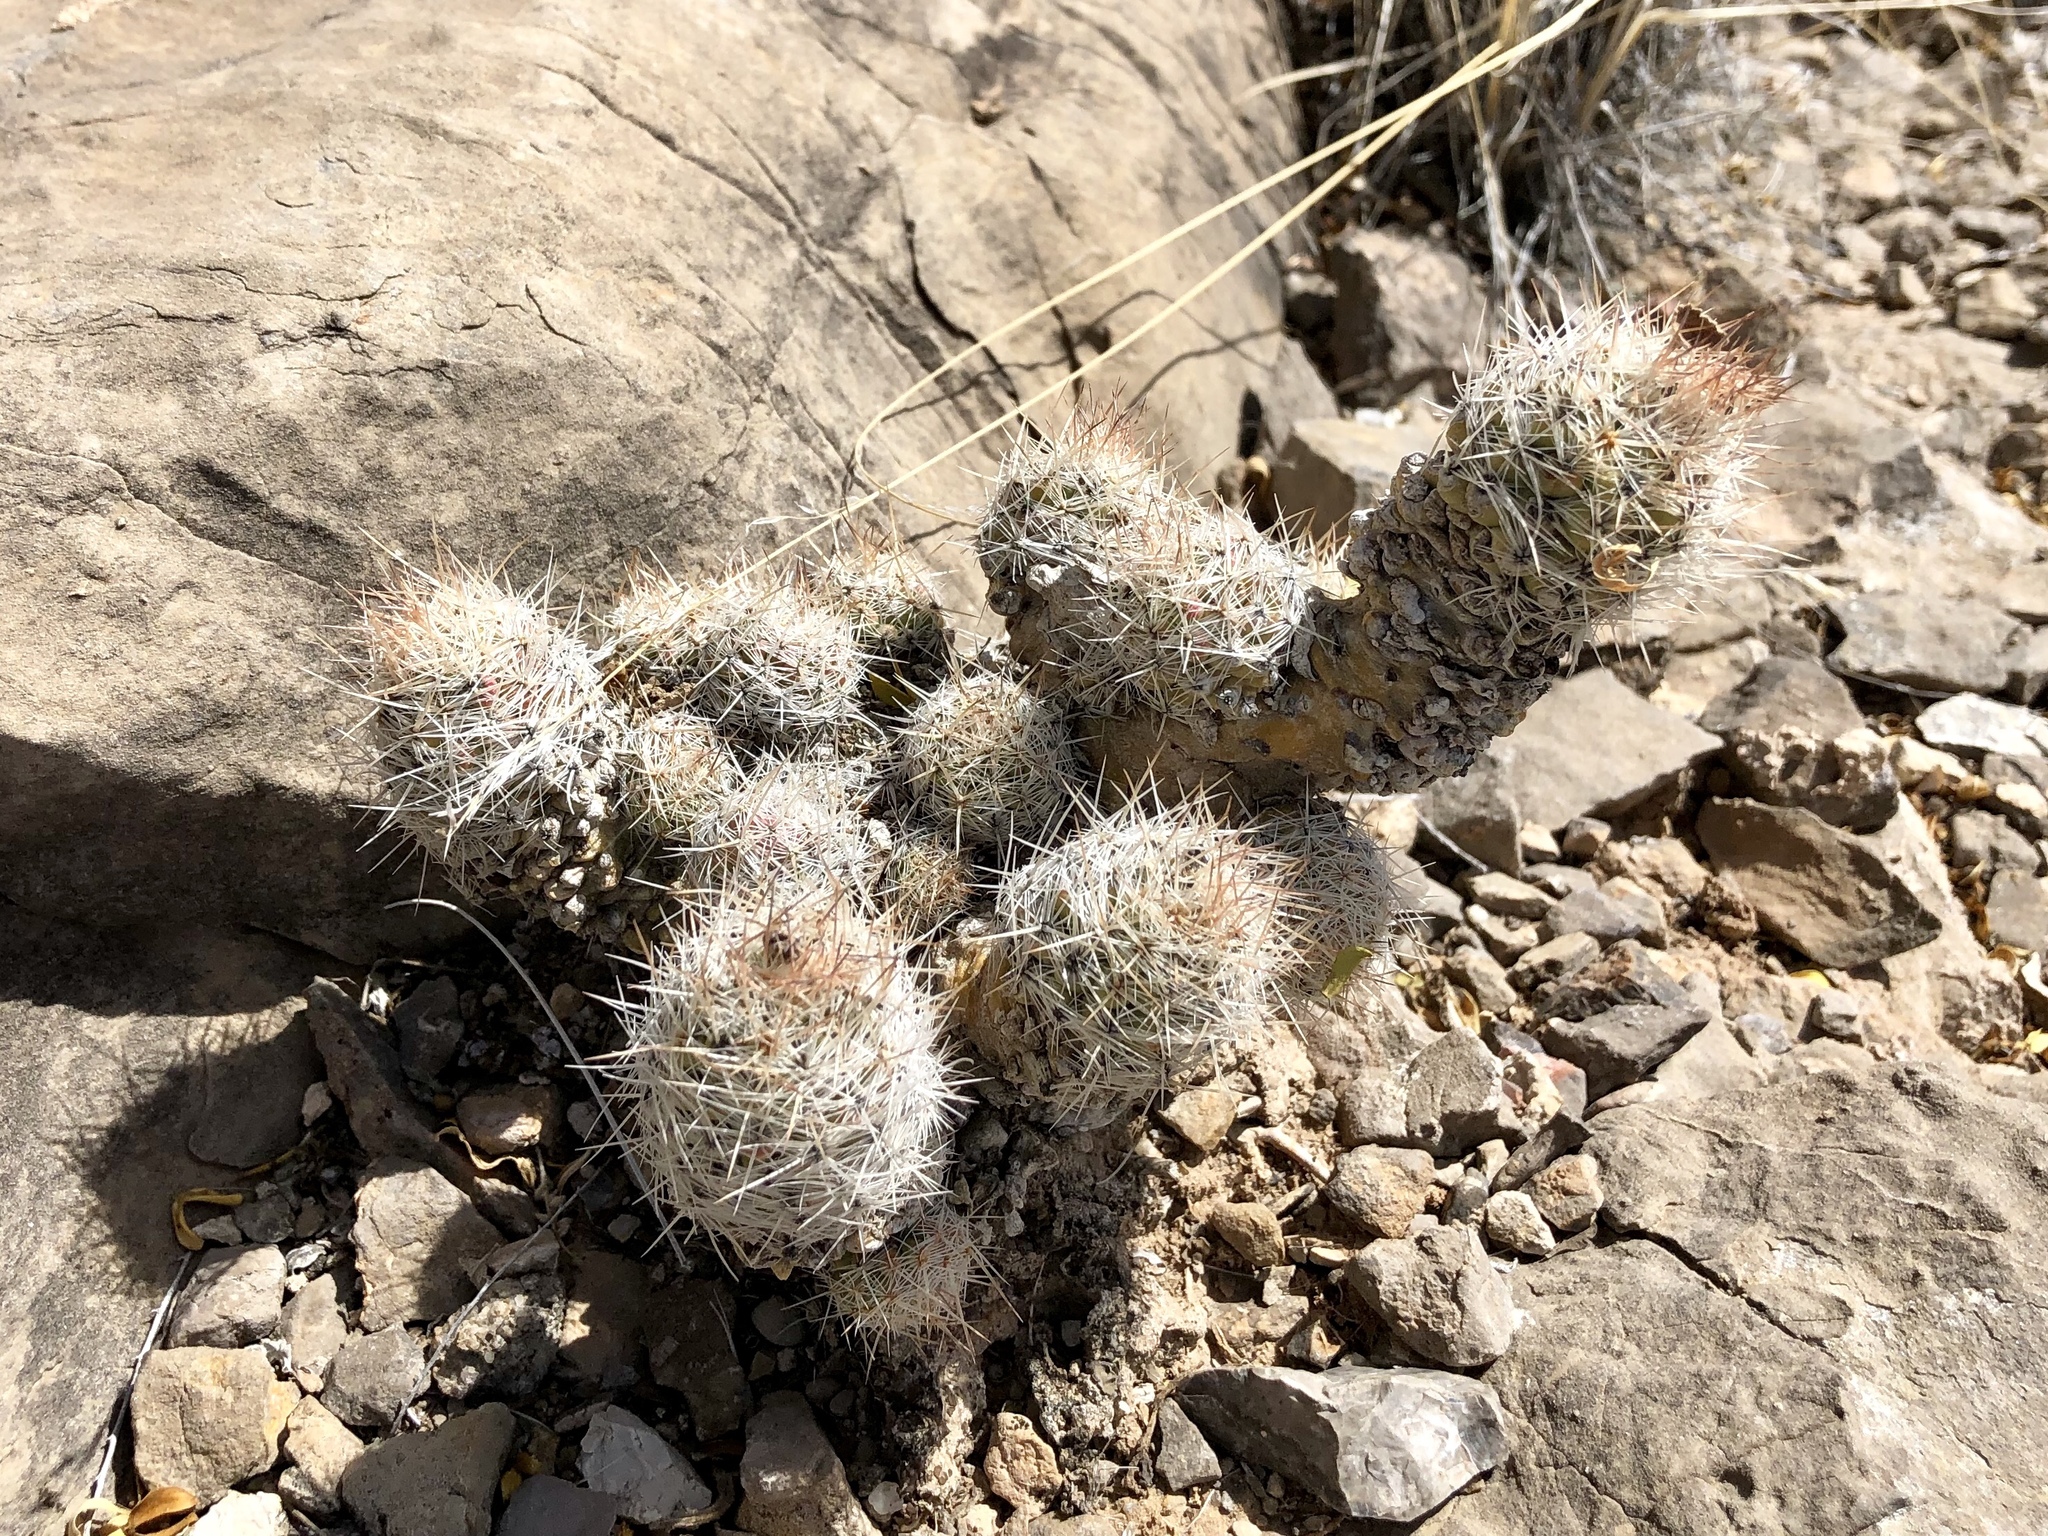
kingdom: Plantae
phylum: Tracheophyta
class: Magnoliopsida
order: Caryophyllales
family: Cactaceae
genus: Pelecyphora
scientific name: Pelecyphora tuberculosa
